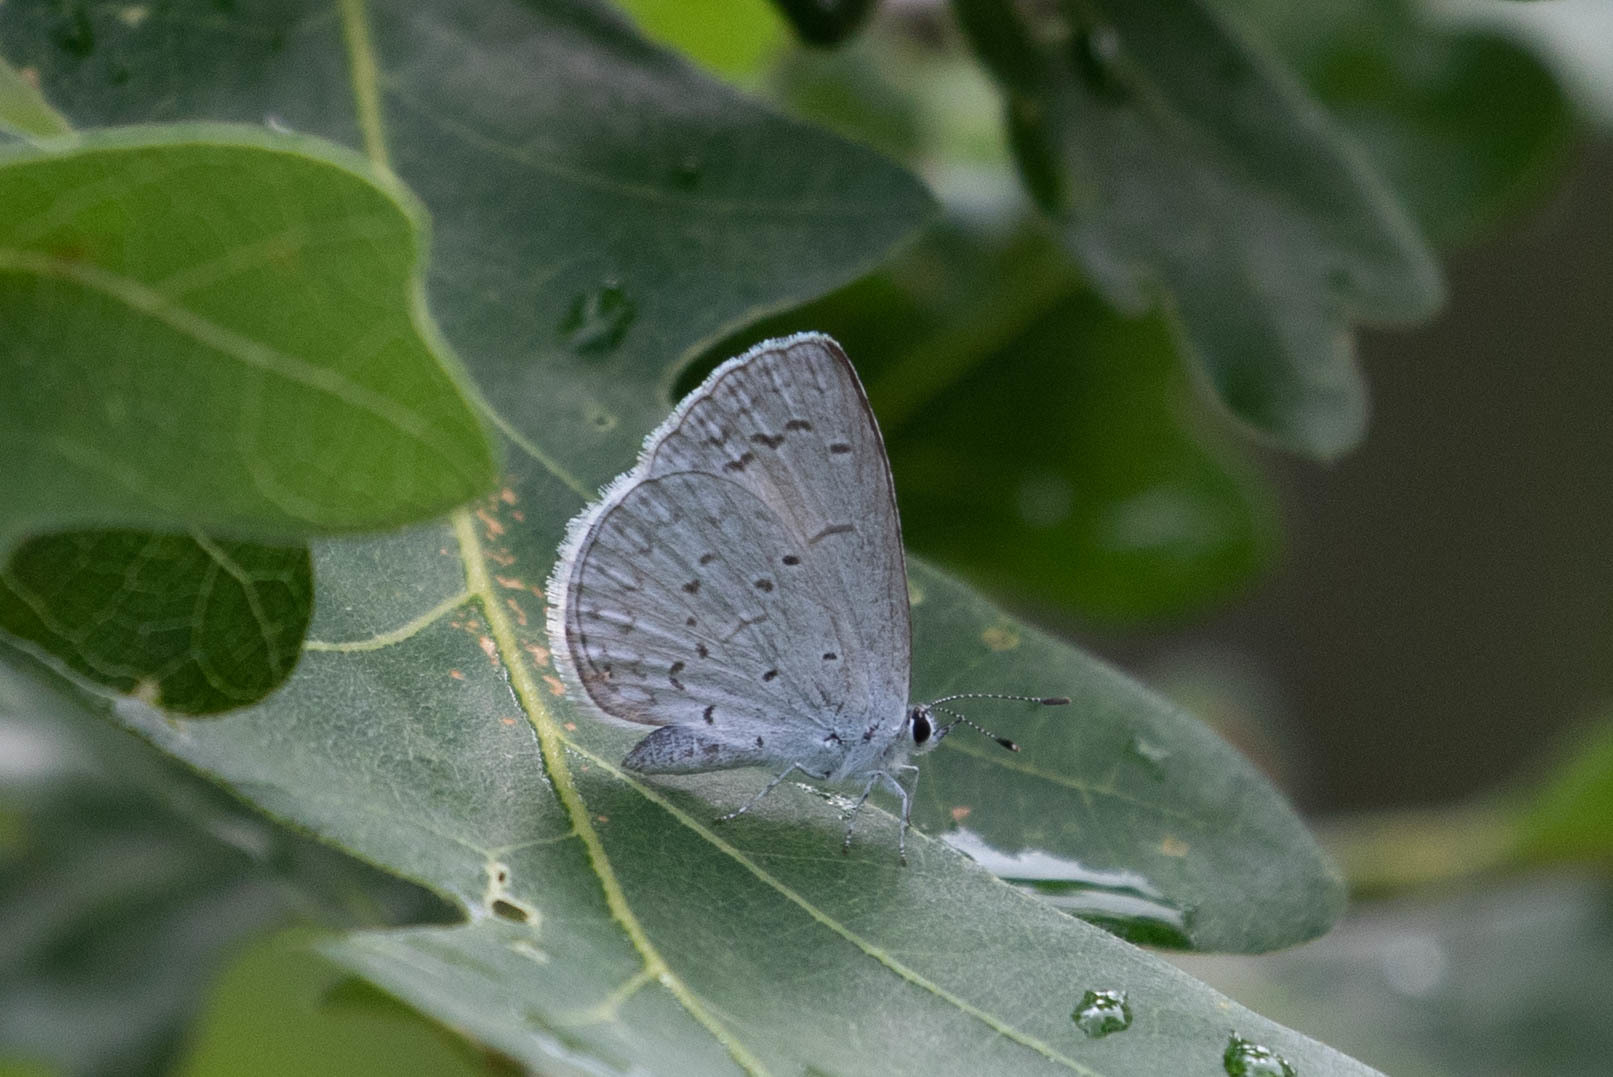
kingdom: Animalia
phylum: Arthropoda
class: Insecta
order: Lepidoptera
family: Lycaenidae
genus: Celastrina
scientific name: Celastrina ladon
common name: Spring azure
